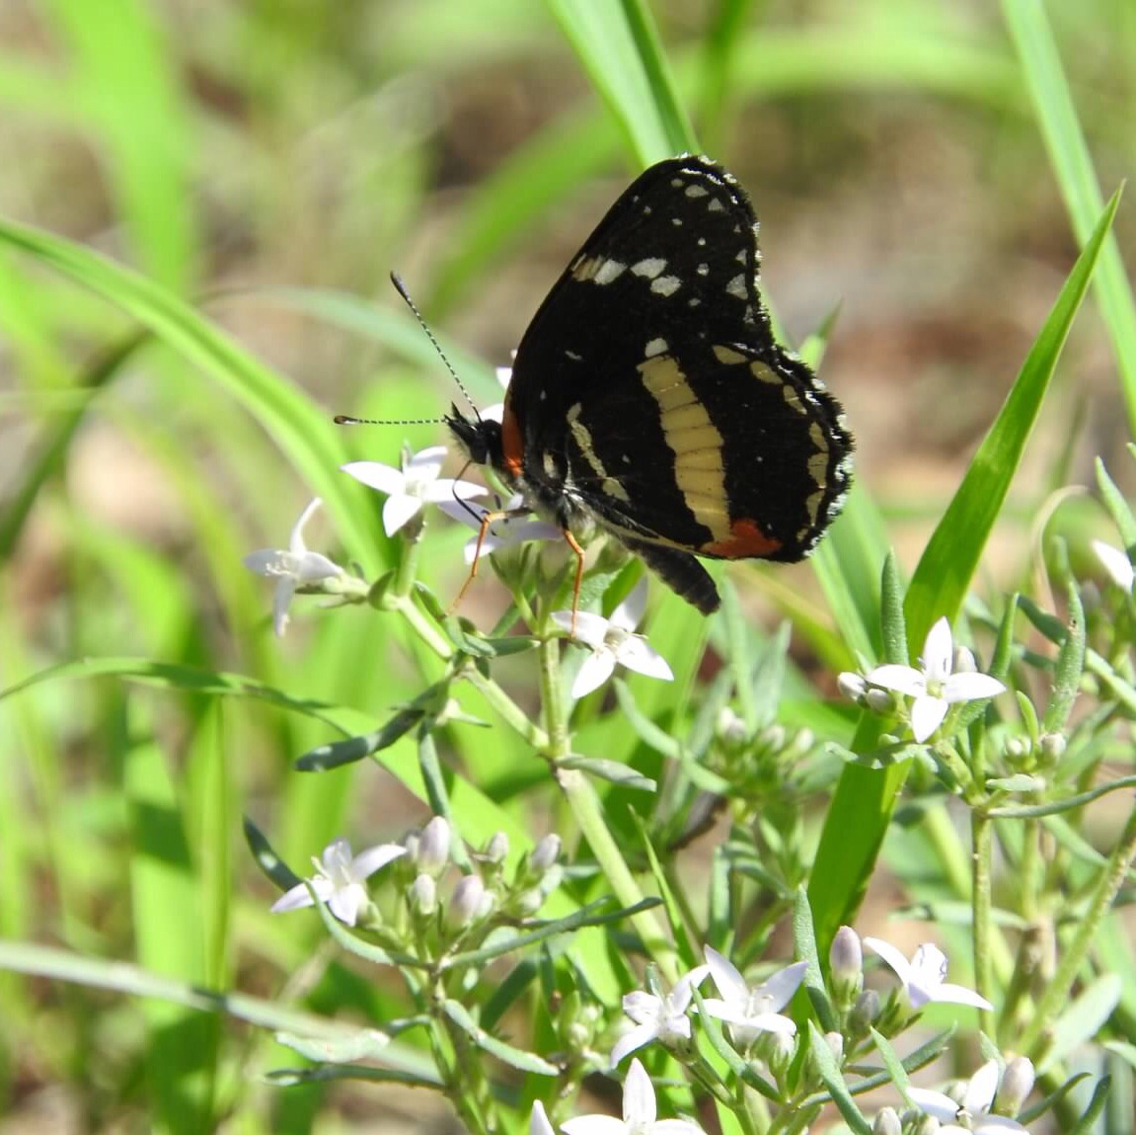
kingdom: Animalia
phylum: Arthropoda
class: Insecta
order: Lepidoptera
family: Nymphalidae
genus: Chlosyne
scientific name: Chlosyne lacinia
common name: Bordered patch
